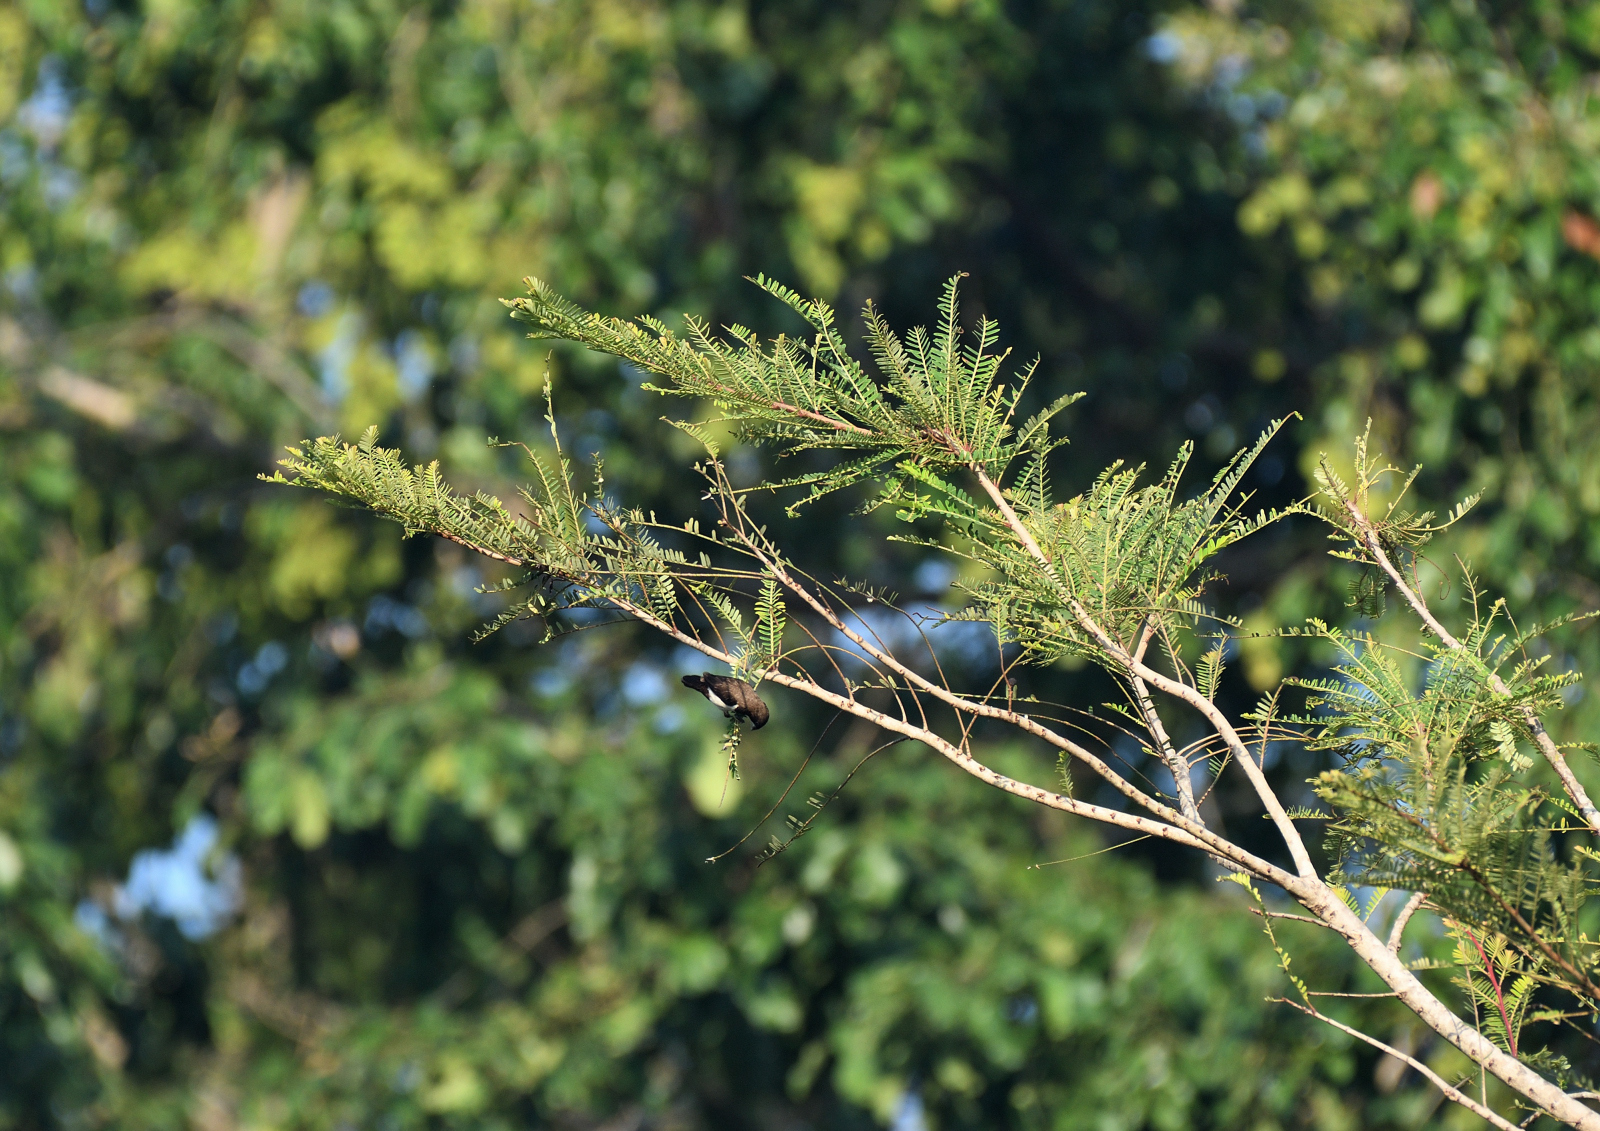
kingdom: Animalia
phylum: Chordata
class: Aves
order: Passeriformes
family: Estrildidae
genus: Lonchura
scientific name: Lonchura striata
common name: White-rumped munia
